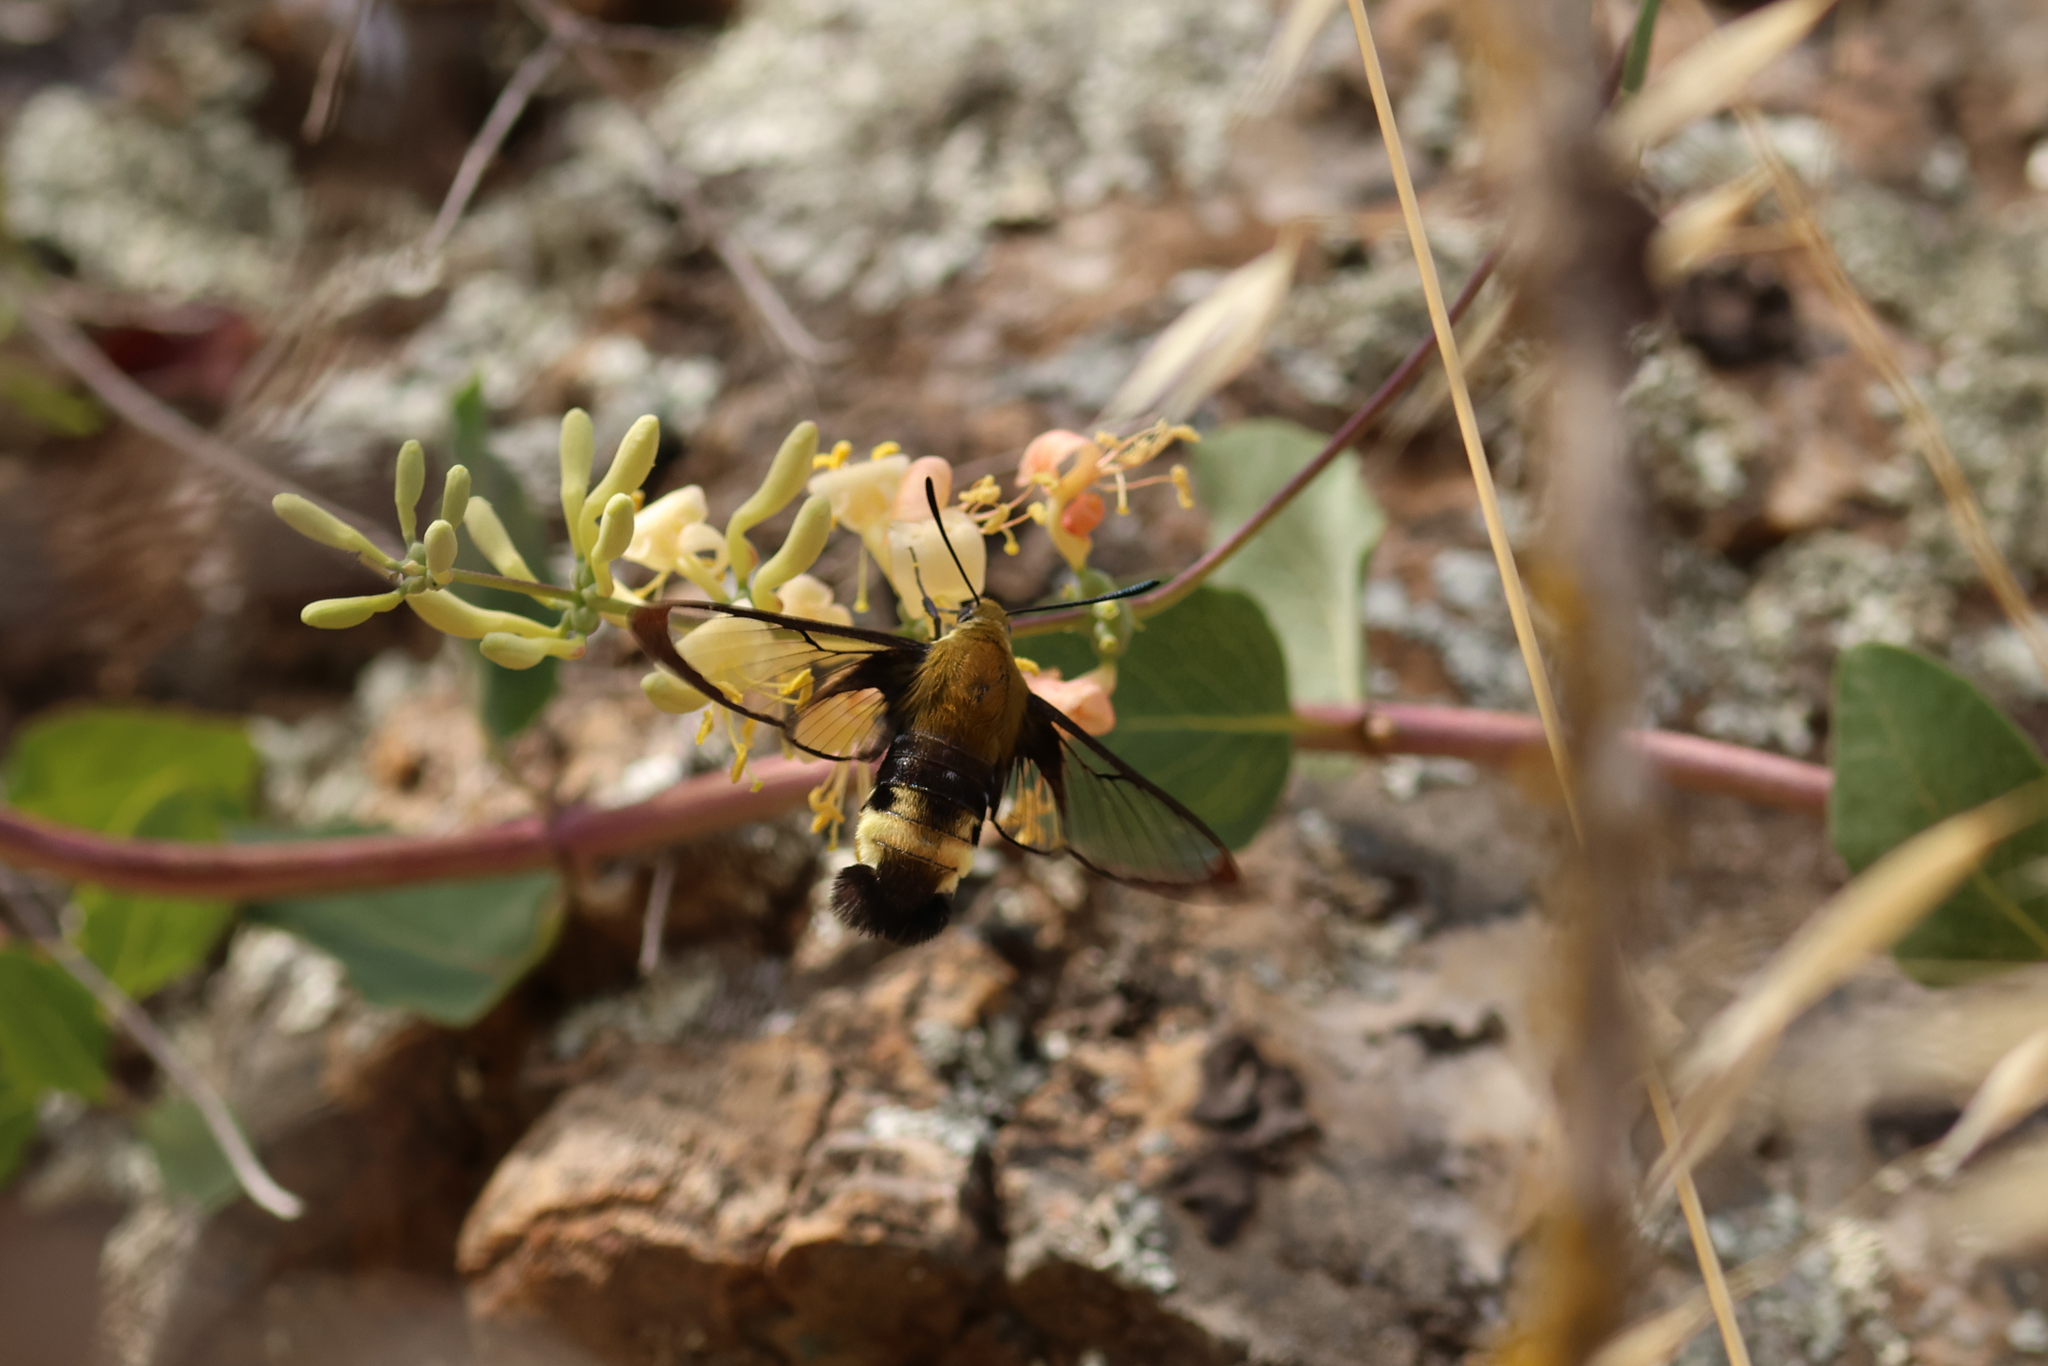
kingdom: Animalia
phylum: Arthropoda
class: Insecta
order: Lepidoptera
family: Sphingidae
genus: Hemaris
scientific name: Hemaris thetis
